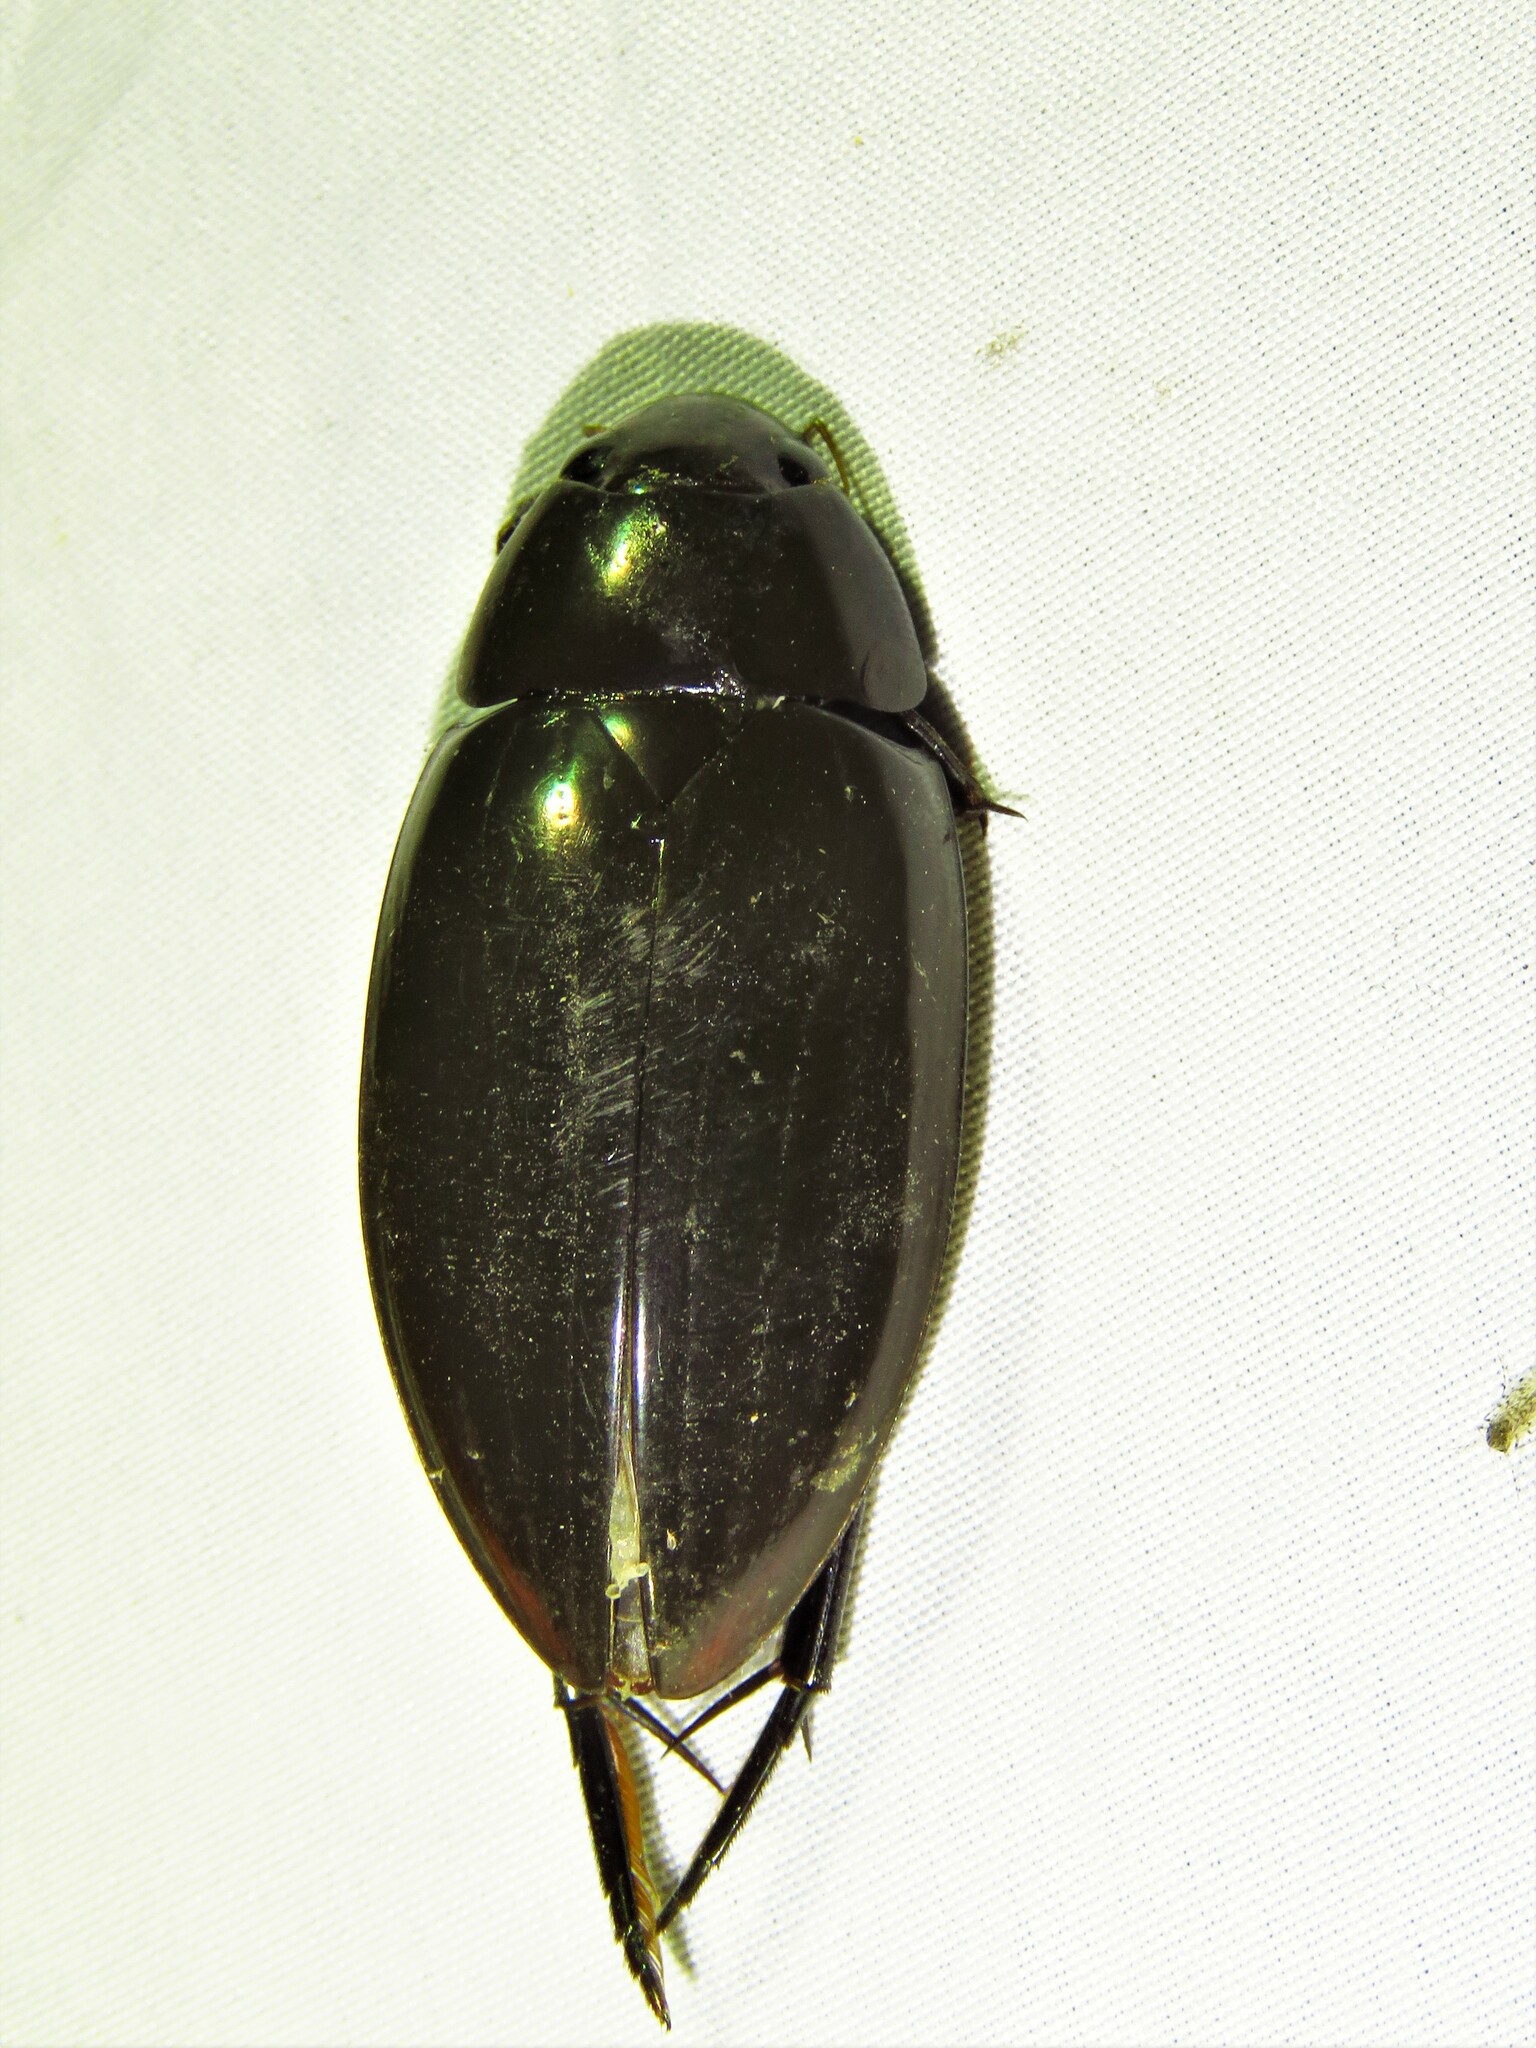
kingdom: Animalia
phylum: Arthropoda
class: Insecta
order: Coleoptera
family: Hydrophilidae
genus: Hydrophilus
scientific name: Hydrophilus insularis
